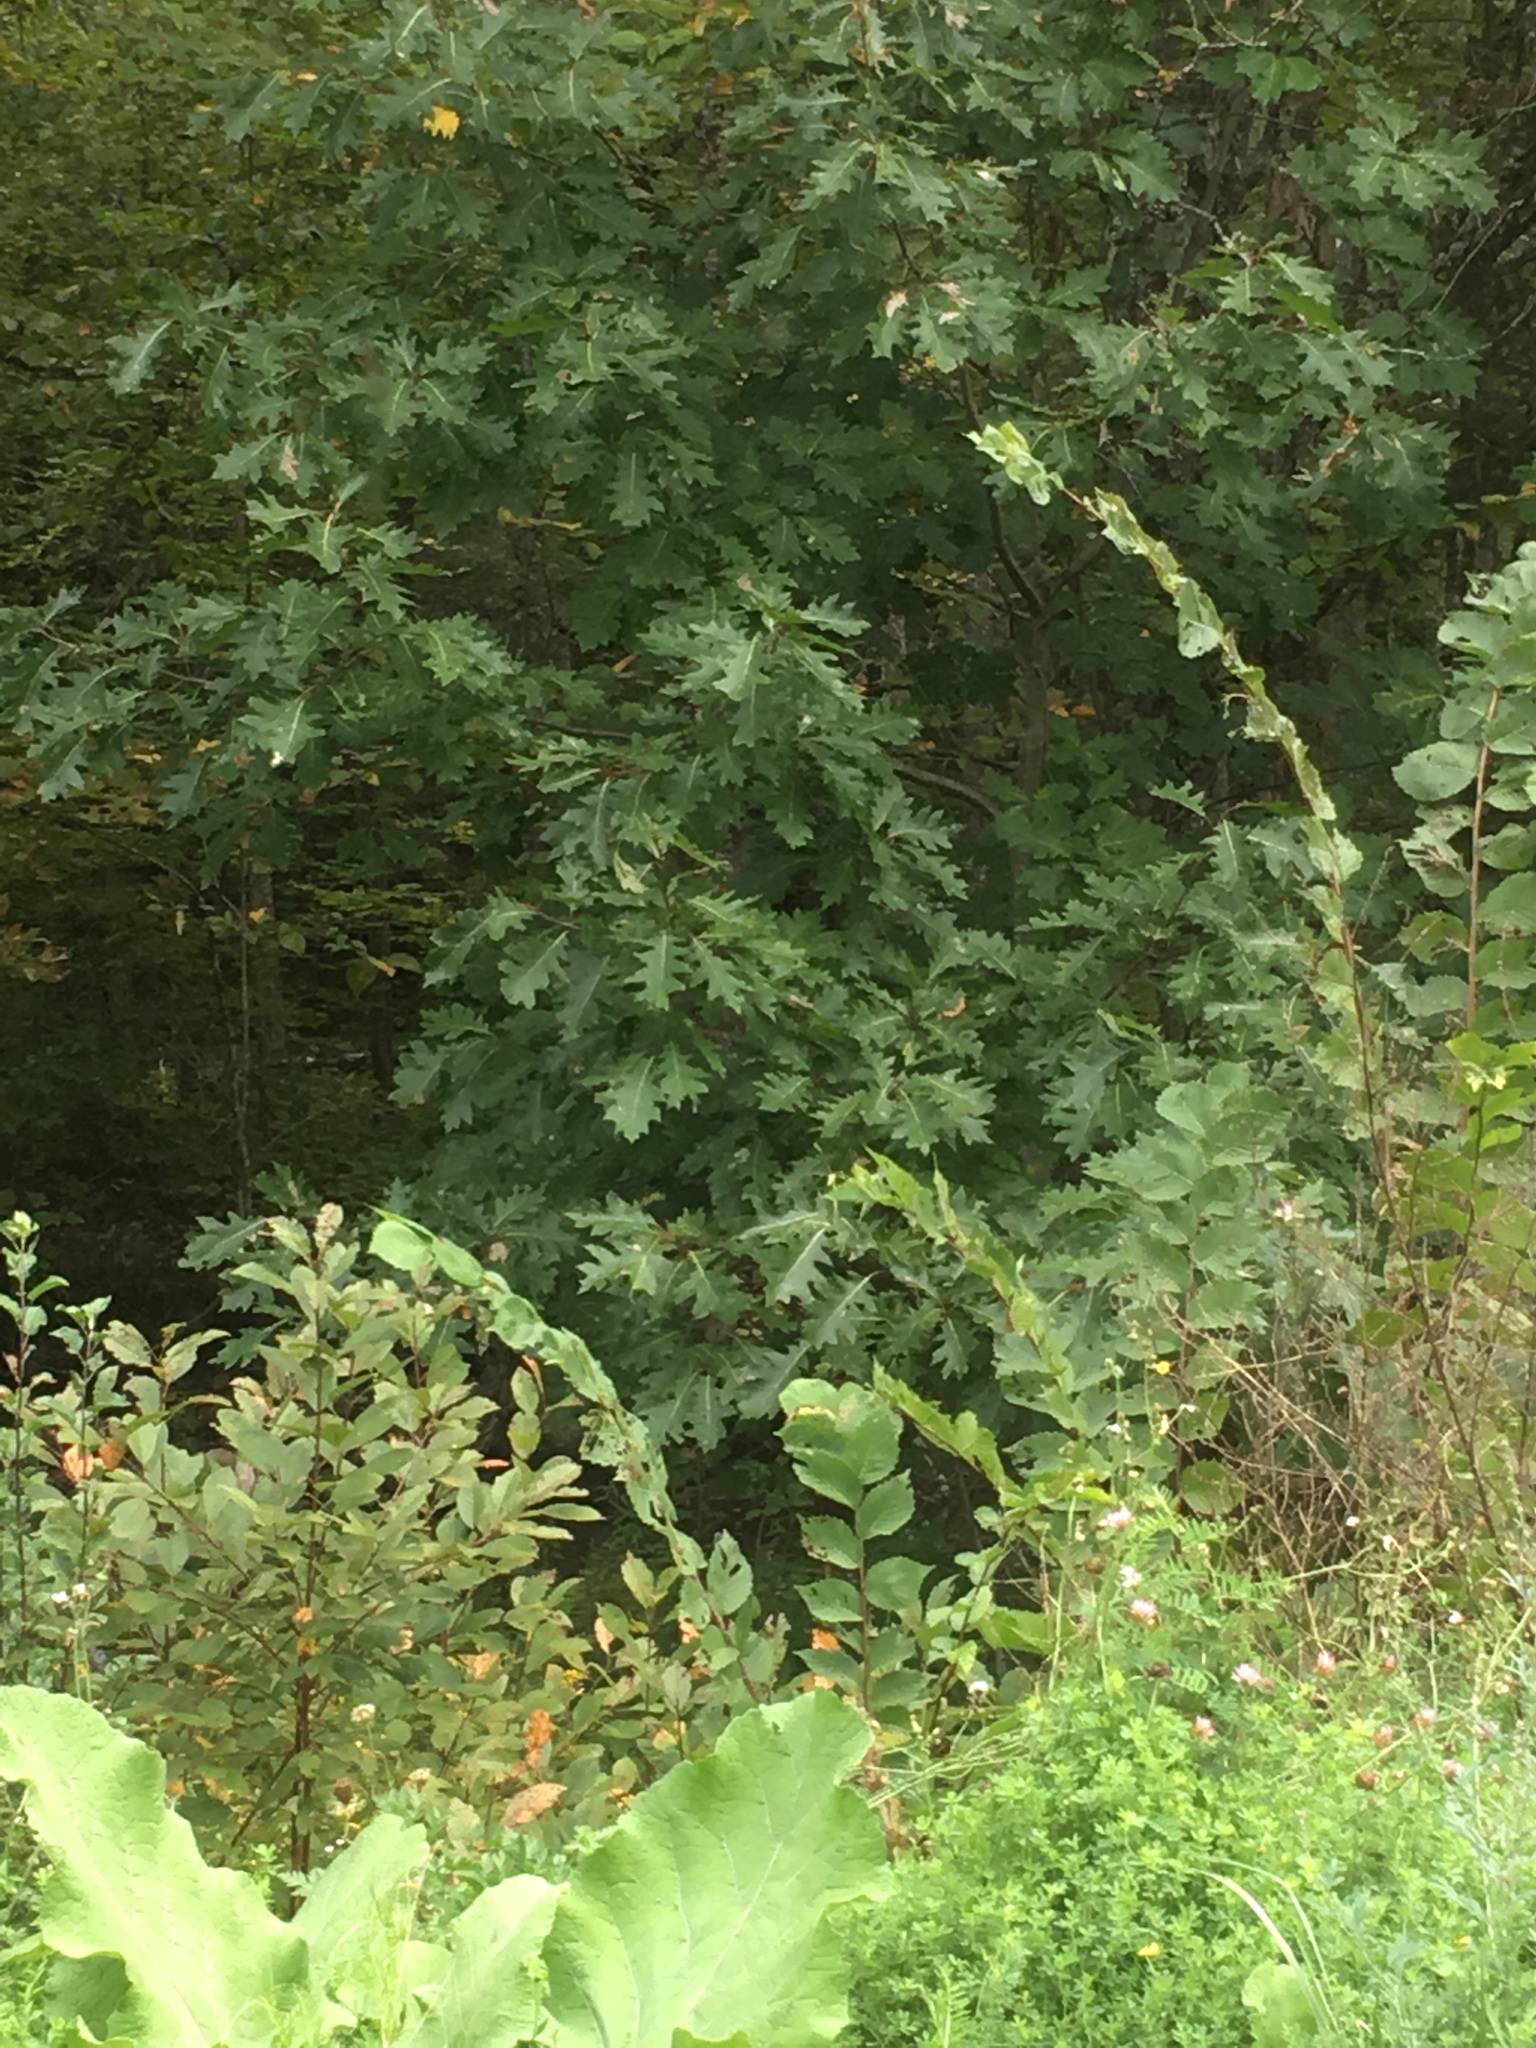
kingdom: Plantae
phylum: Tracheophyta
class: Magnoliopsida
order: Fagales
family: Fagaceae
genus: Quercus
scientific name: Quercus rubra
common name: Red oak
